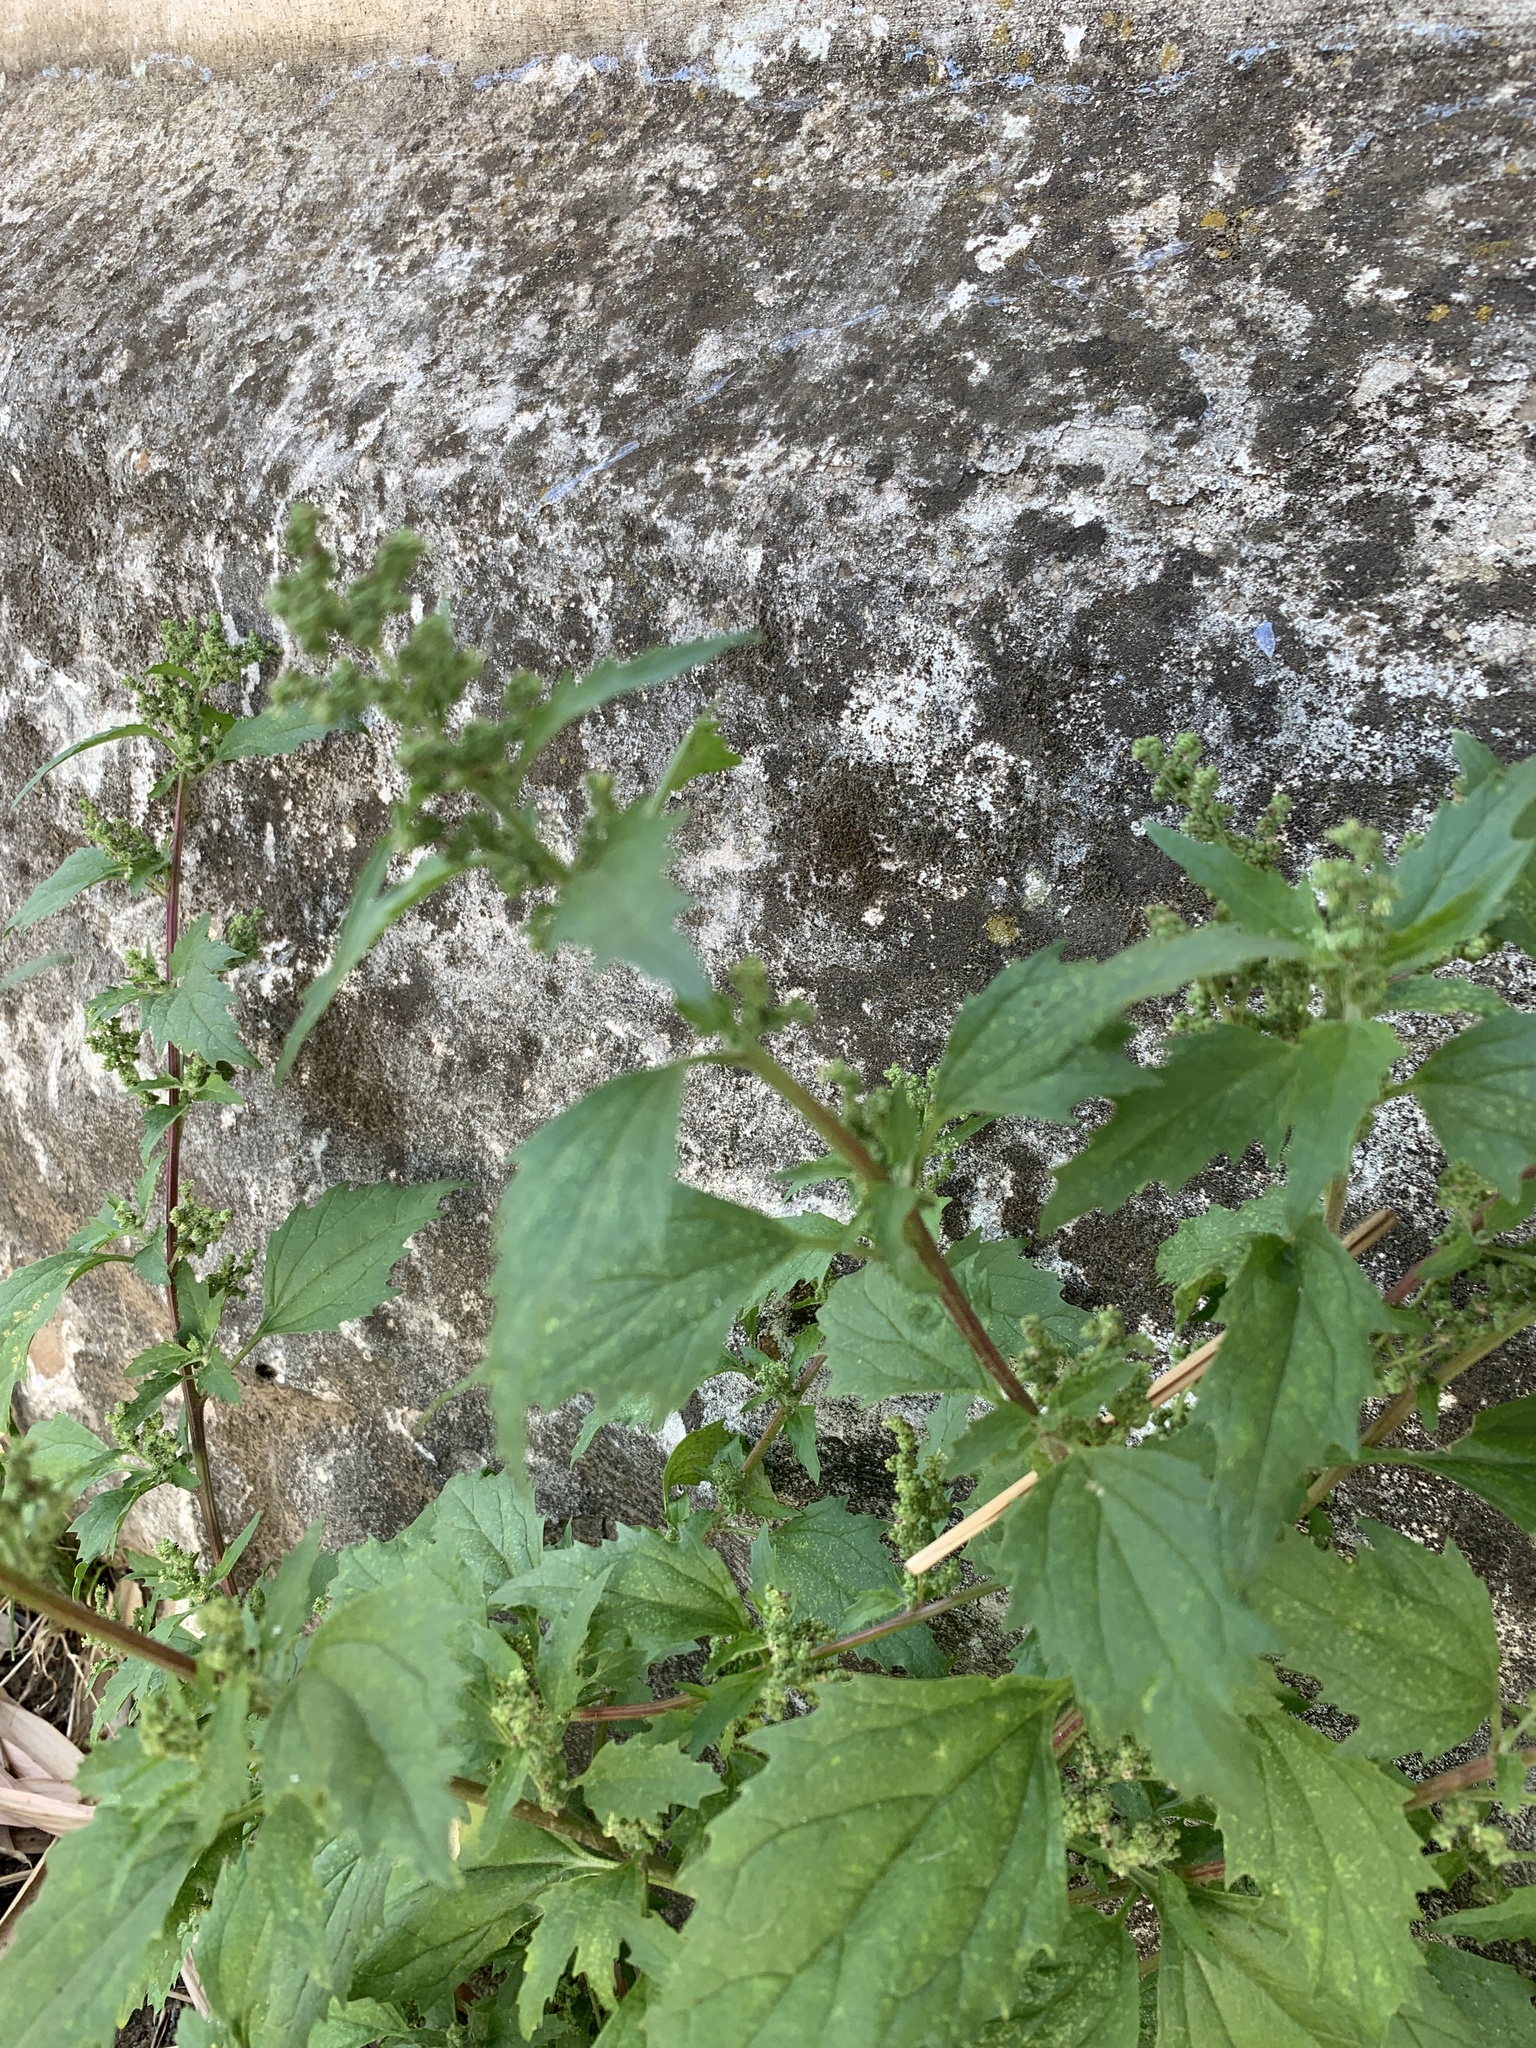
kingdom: Plantae
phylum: Tracheophyta
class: Magnoliopsida
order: Caryophyllales
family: Amaranthaceae
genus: Chenopodiastrum
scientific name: Chenopodiastrum murale
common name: Sowbane
